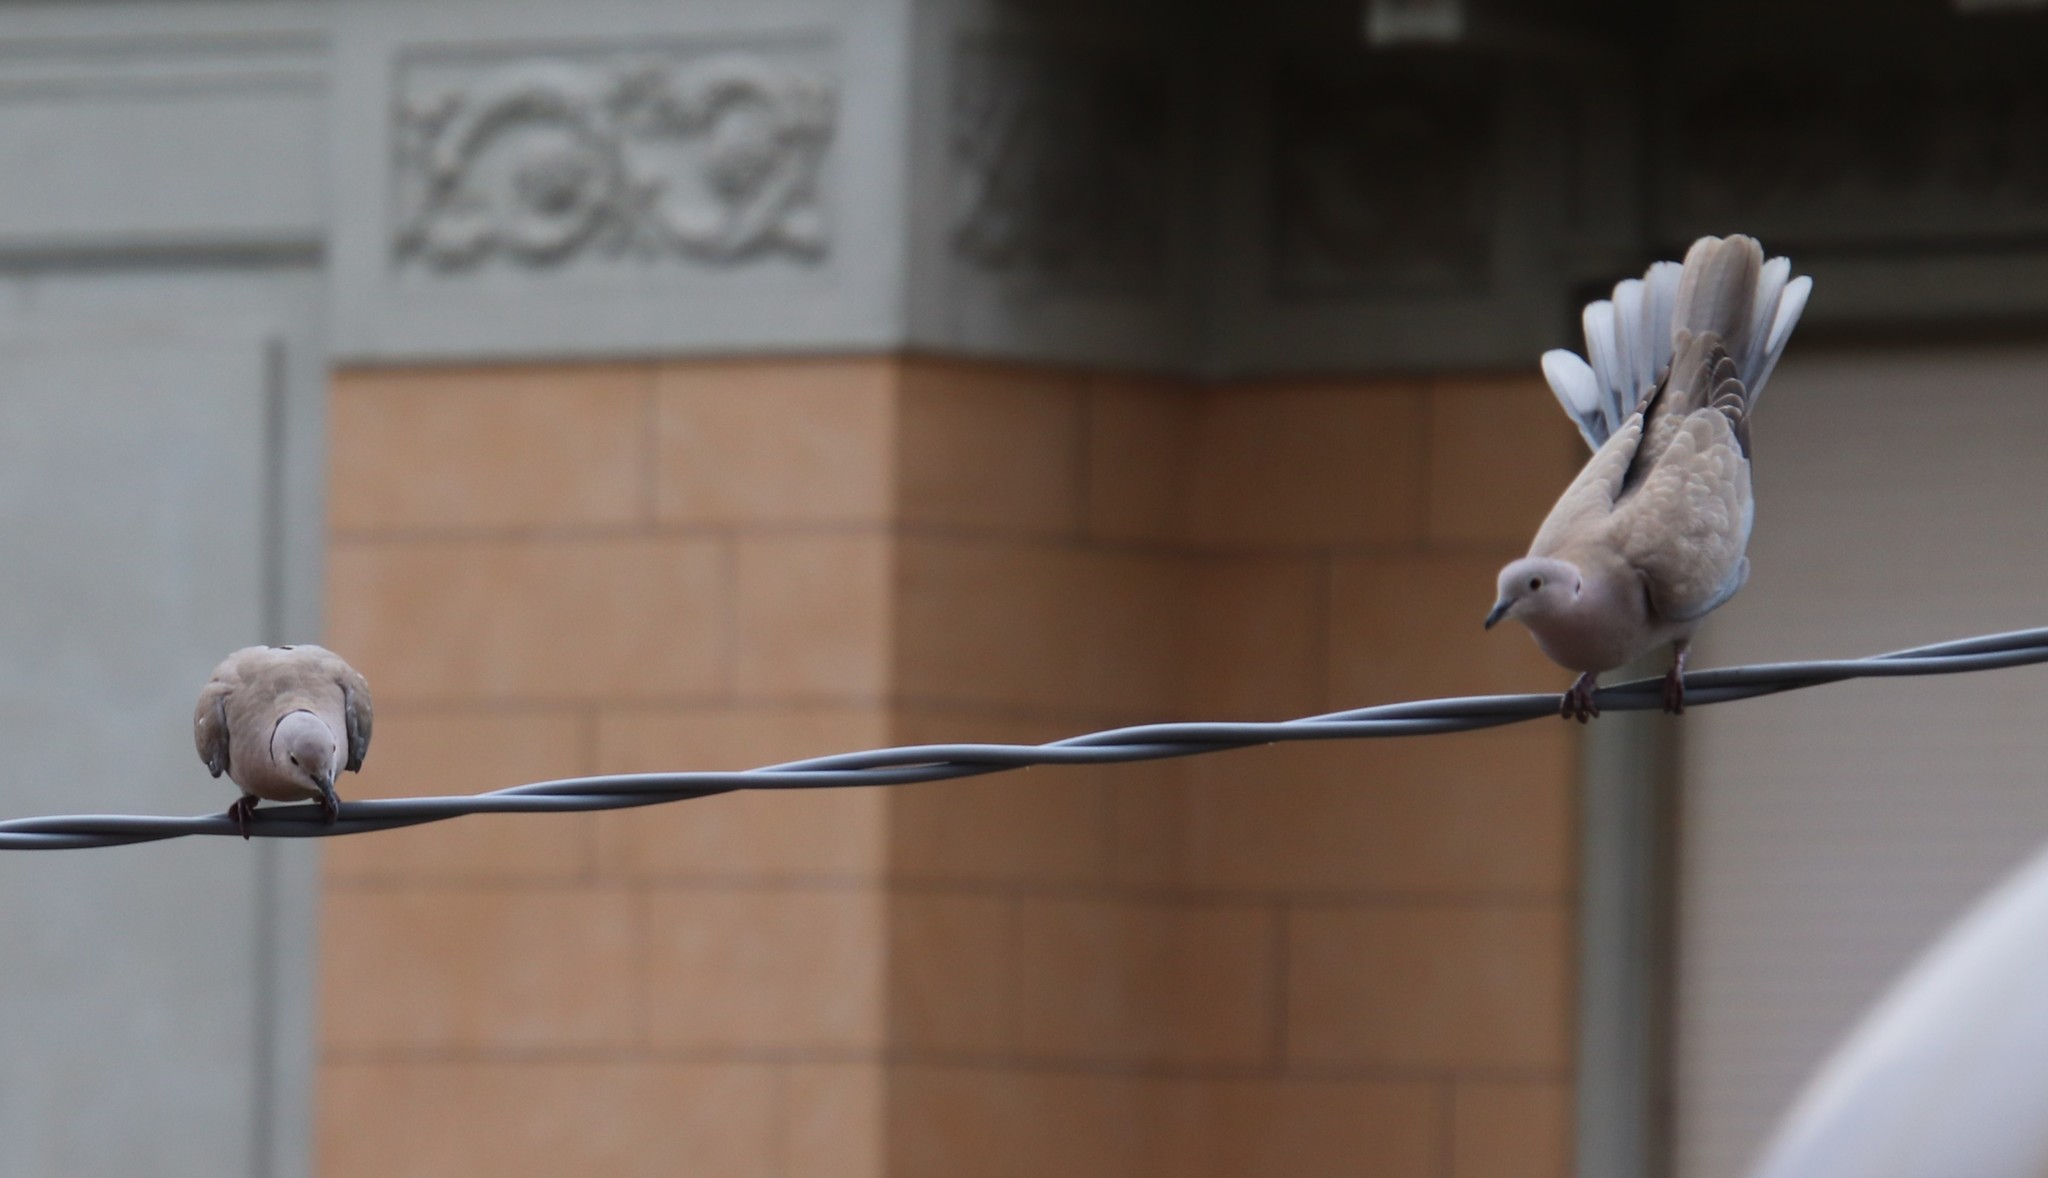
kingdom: Animalia
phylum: Chordata
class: Aves
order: Columbiformes
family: Columbidae
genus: Streptopelia
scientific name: Streptopelia decaocto
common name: Eurasian collared dove
